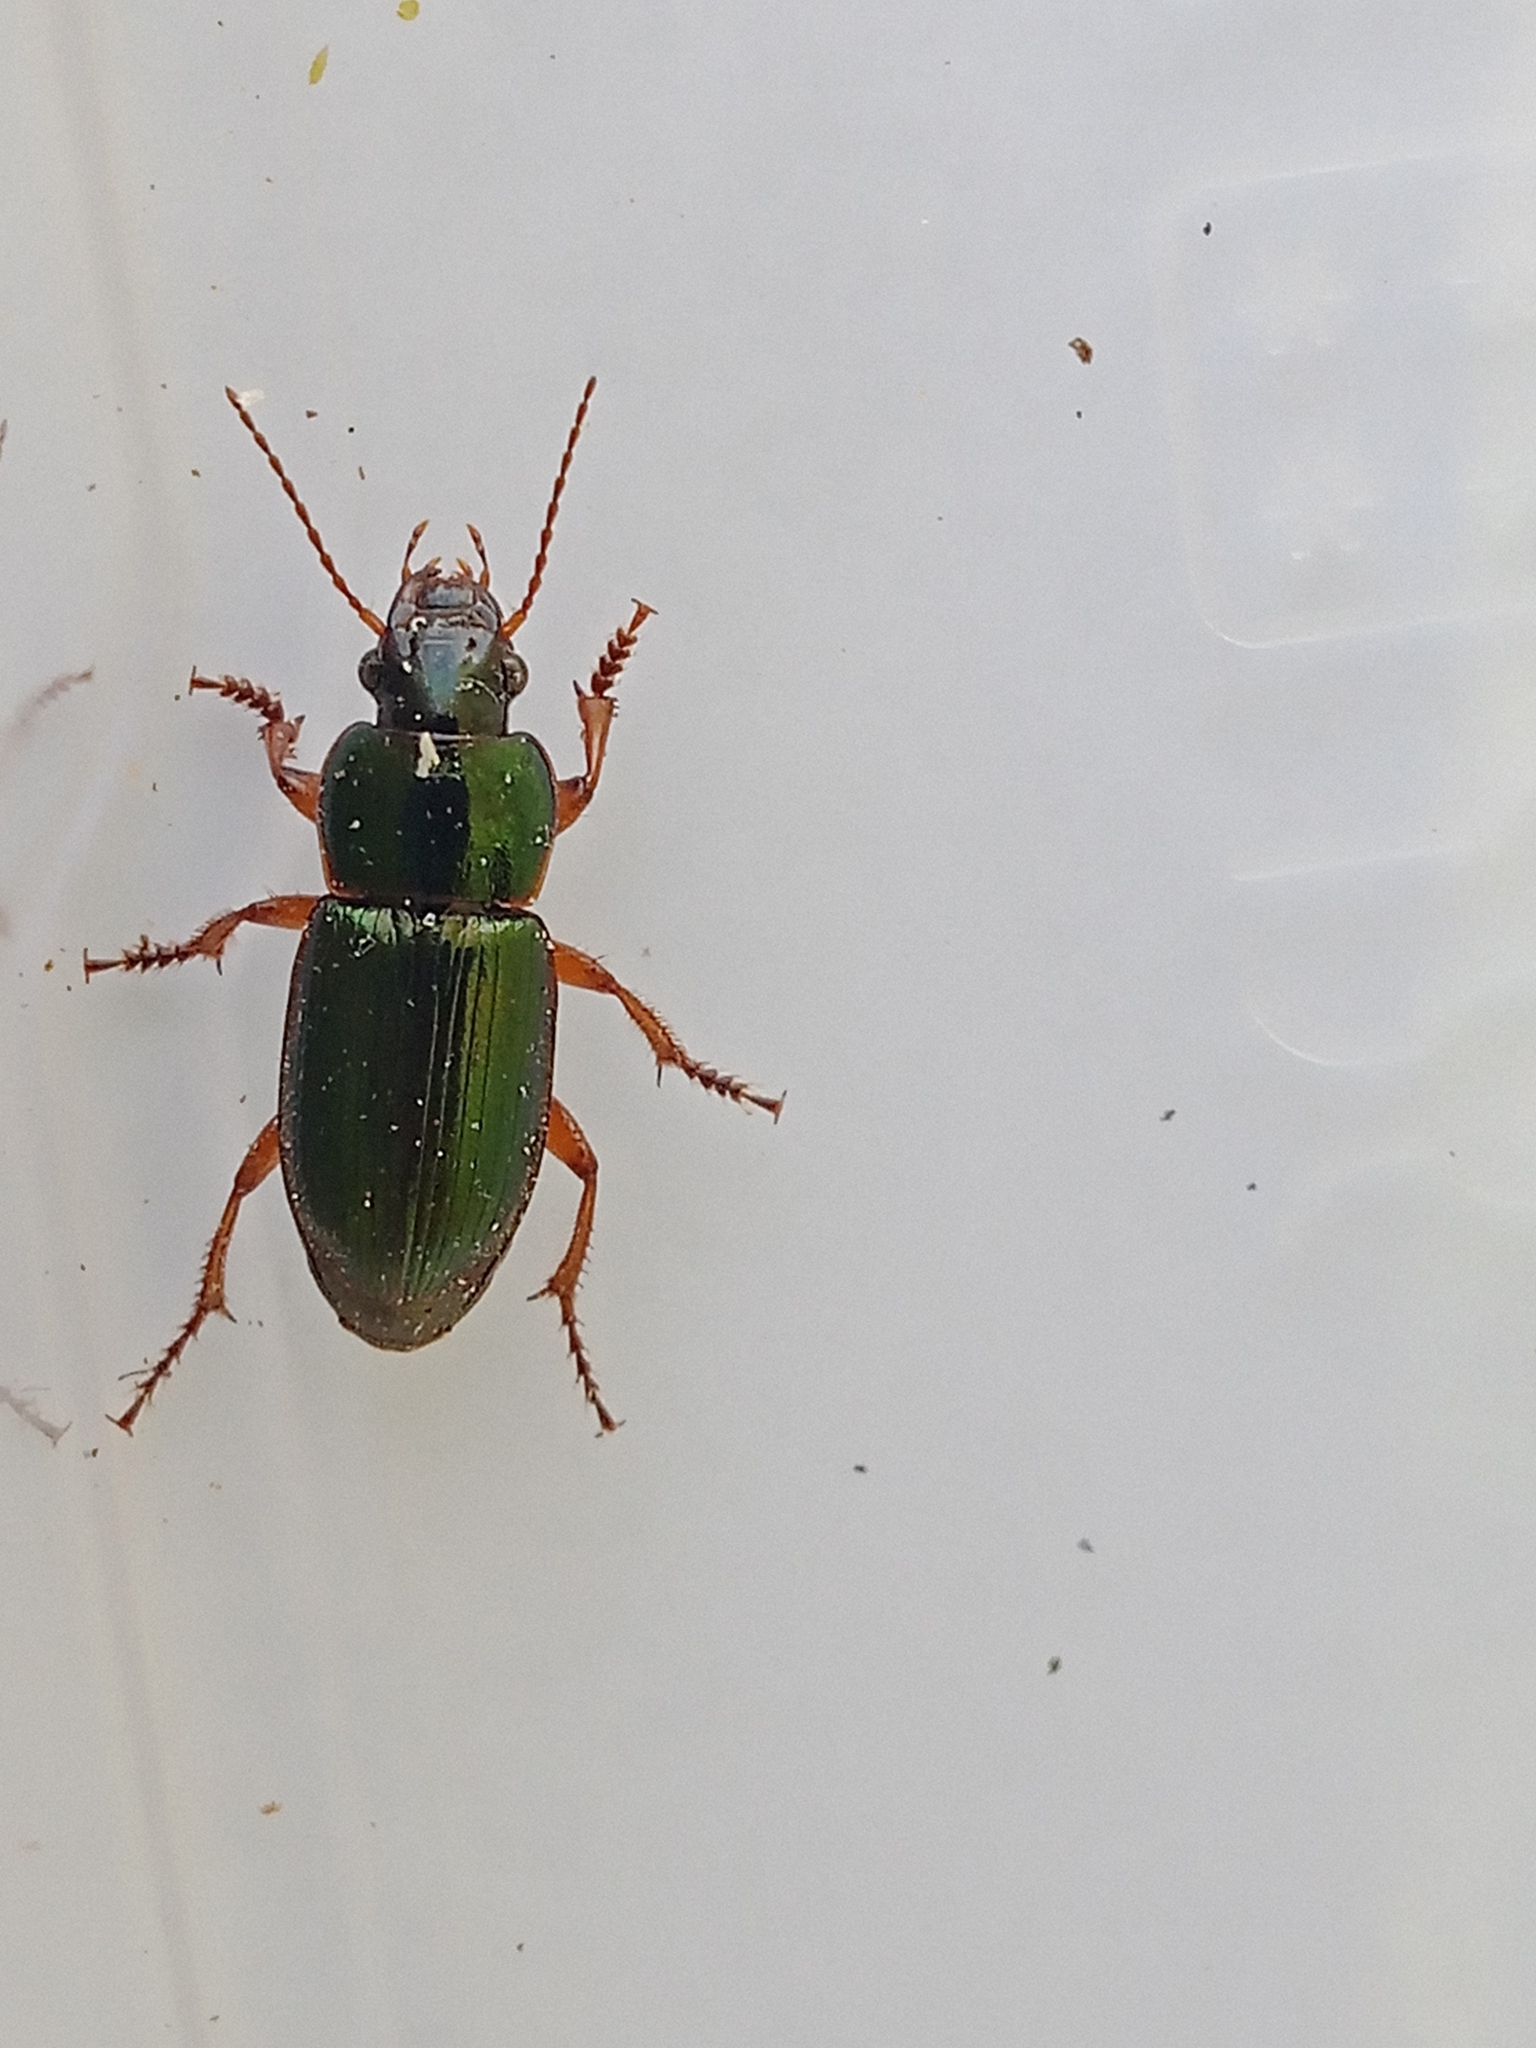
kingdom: Animalia
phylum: Arthropoda
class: Insecta
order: Coleoptera
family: Carabidae
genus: Harpalus
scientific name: Harpalus affinis
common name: Polychrome harp ground beetle
